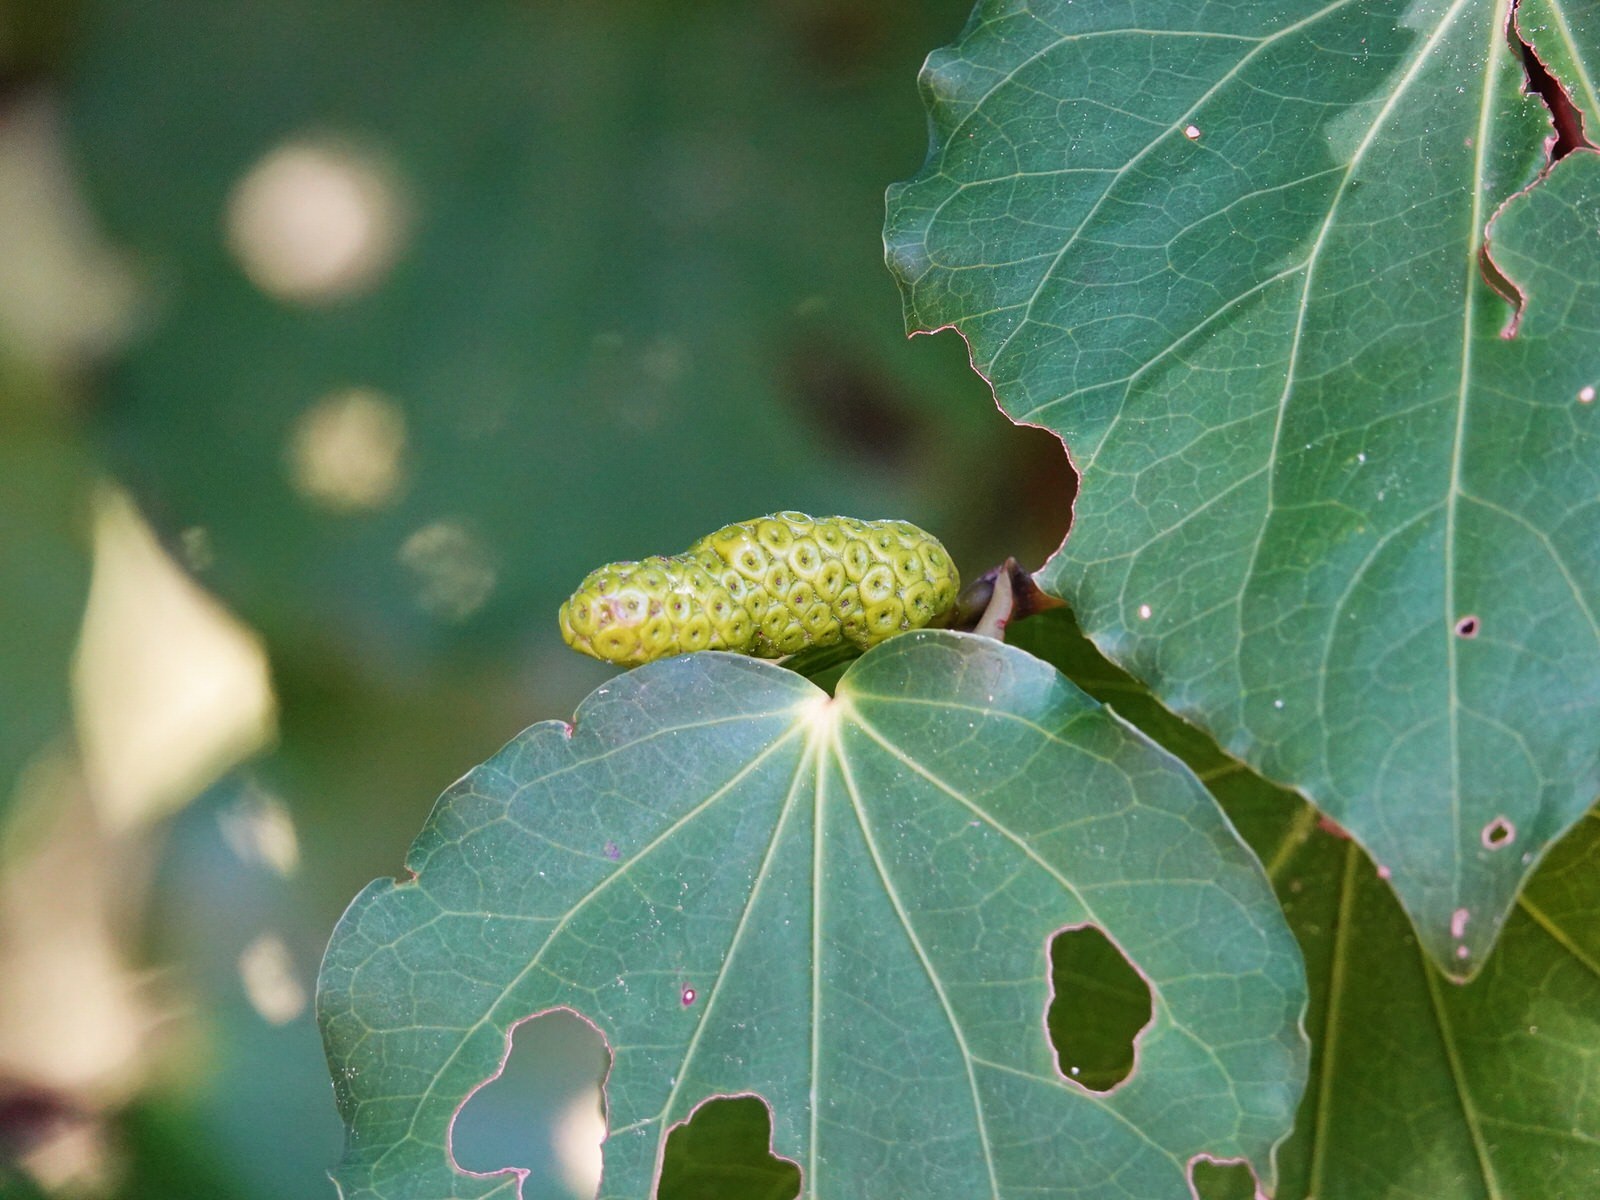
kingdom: Plantae
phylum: Tracheophyta
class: Magnoliopsida
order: Piperales
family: Piperaceae
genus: Macropiper
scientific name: Macropiper excelsum
